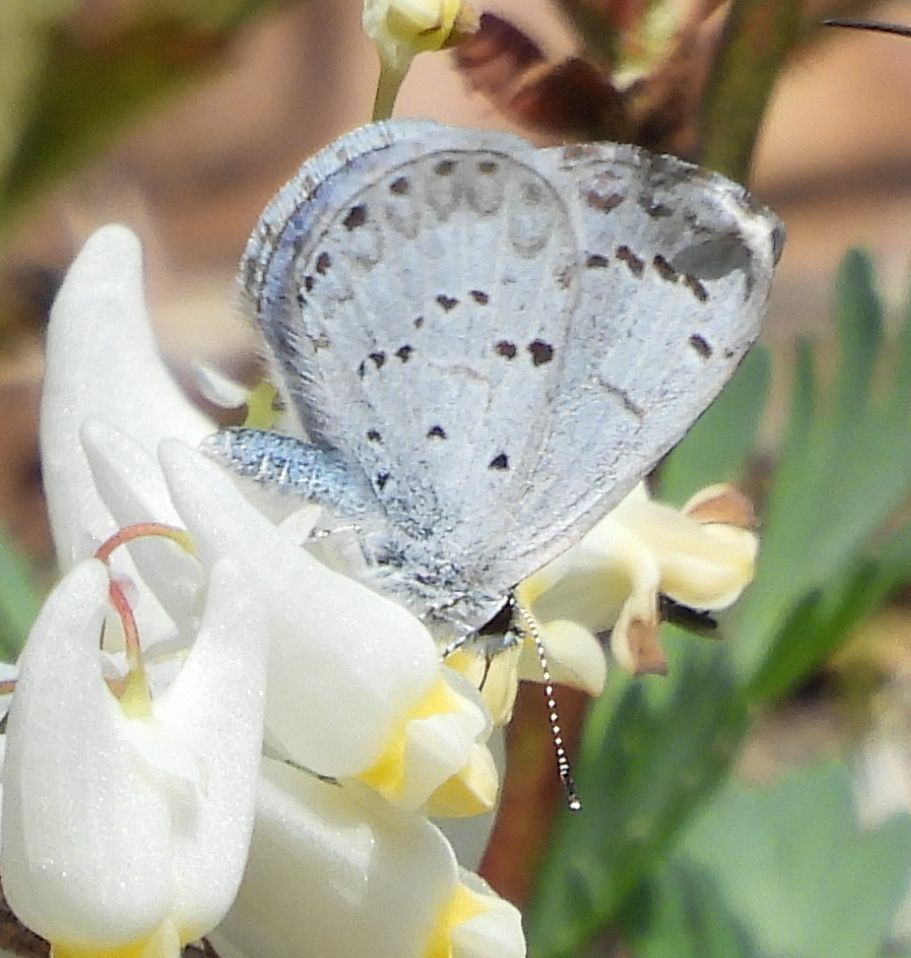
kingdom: Animalia
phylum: Arthropoda
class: Insecta
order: Lepidoptera
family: Lycaenidae
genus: Celastrina
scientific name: Celastrina lucia
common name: Lucia azure
